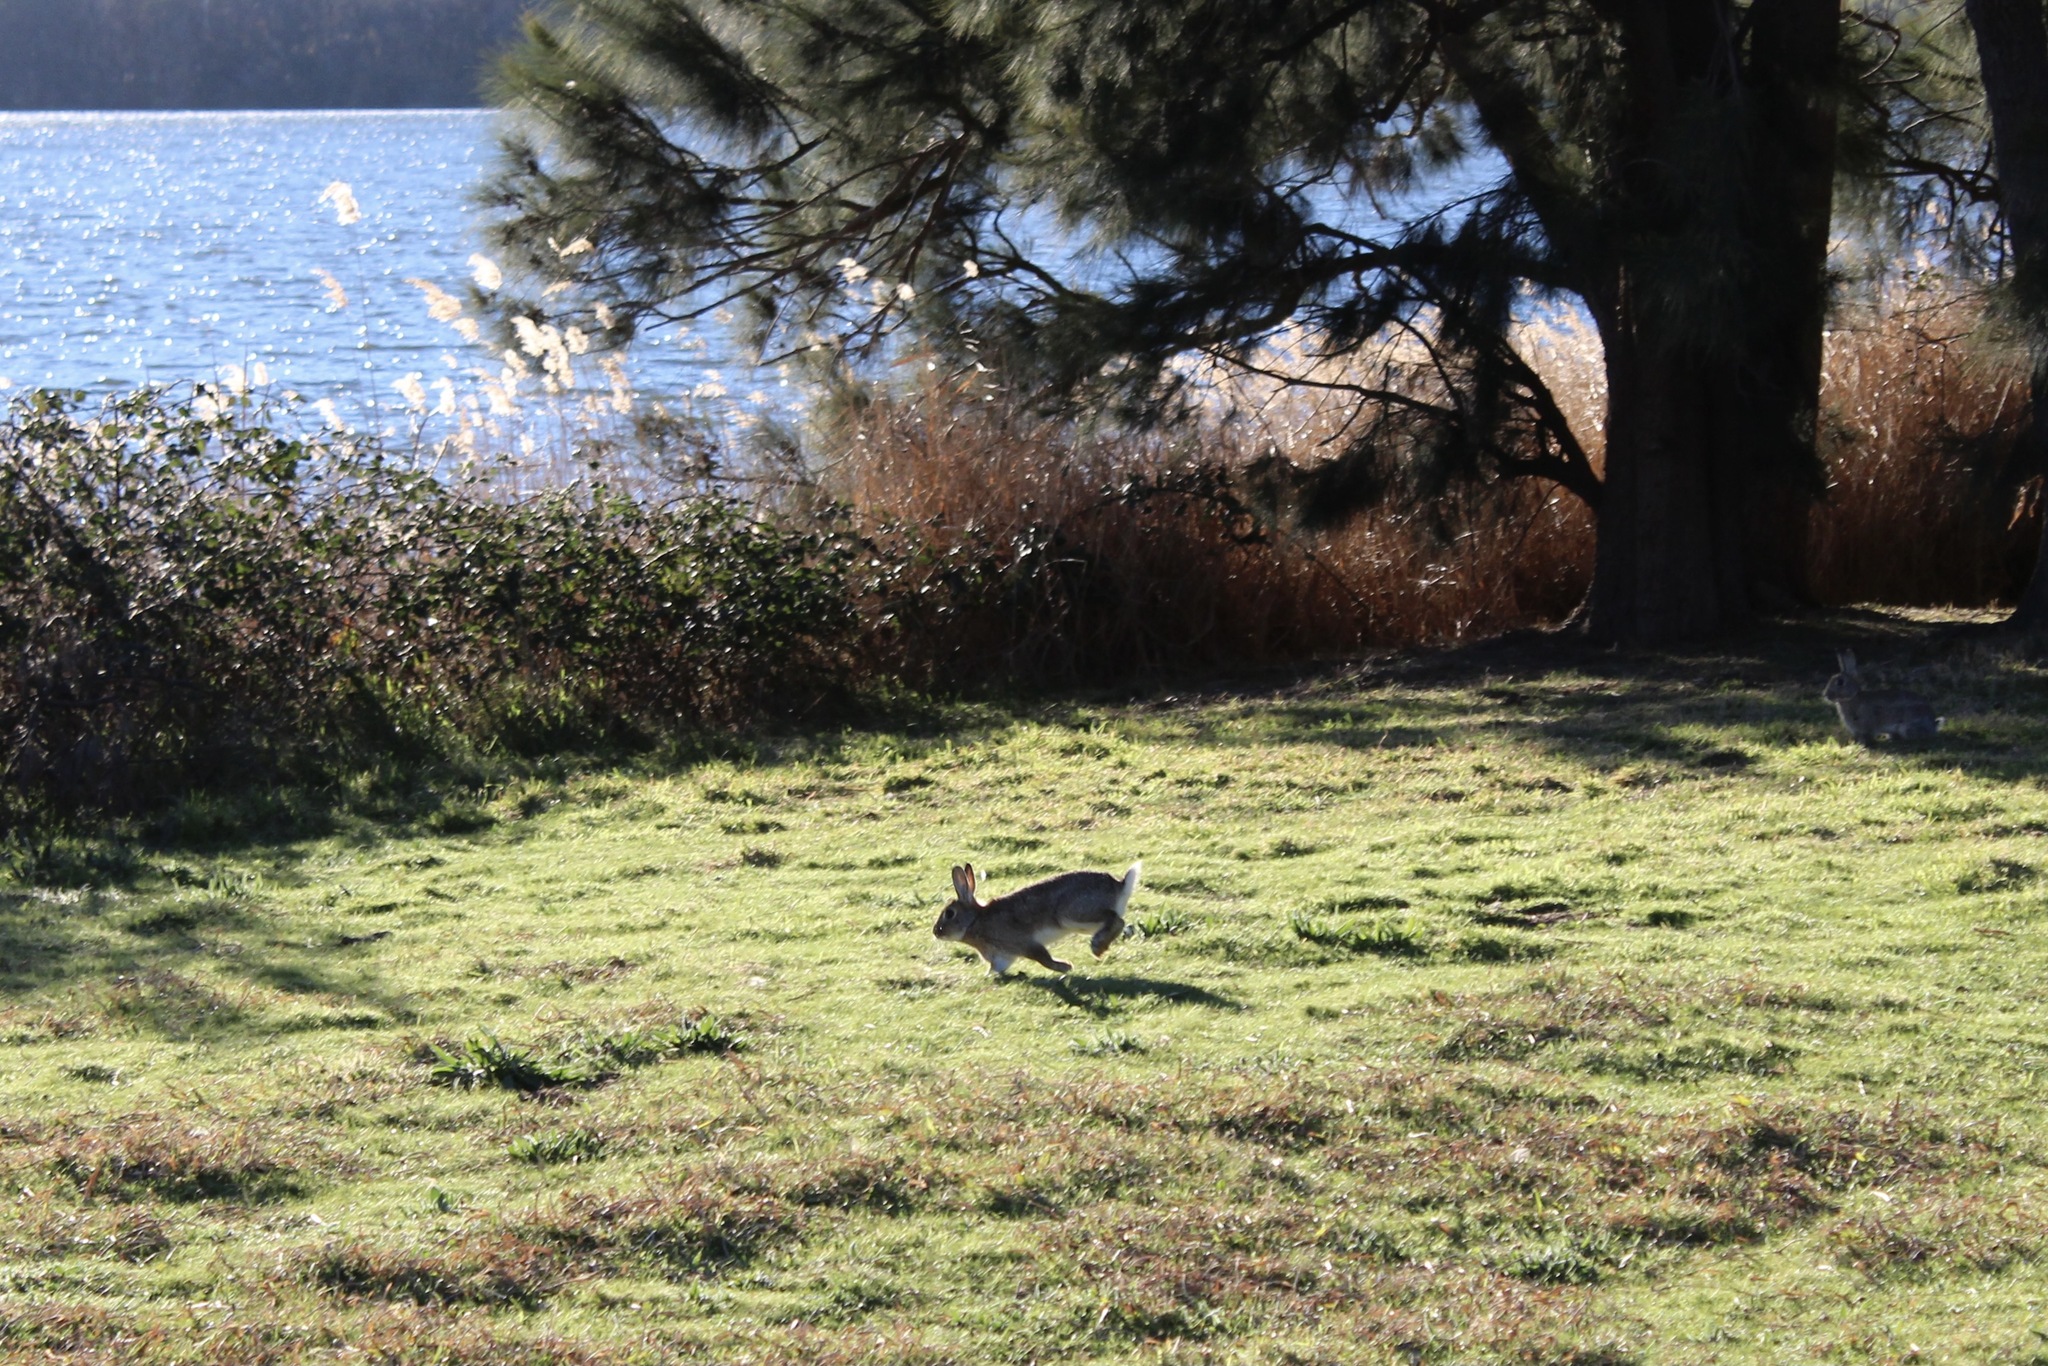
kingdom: Animalia
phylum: Chordata
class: Mammalia
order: Lagomorpha
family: Leporidae
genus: Oryctolagus
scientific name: Oryctolagus cuniculus
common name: European rabbit
